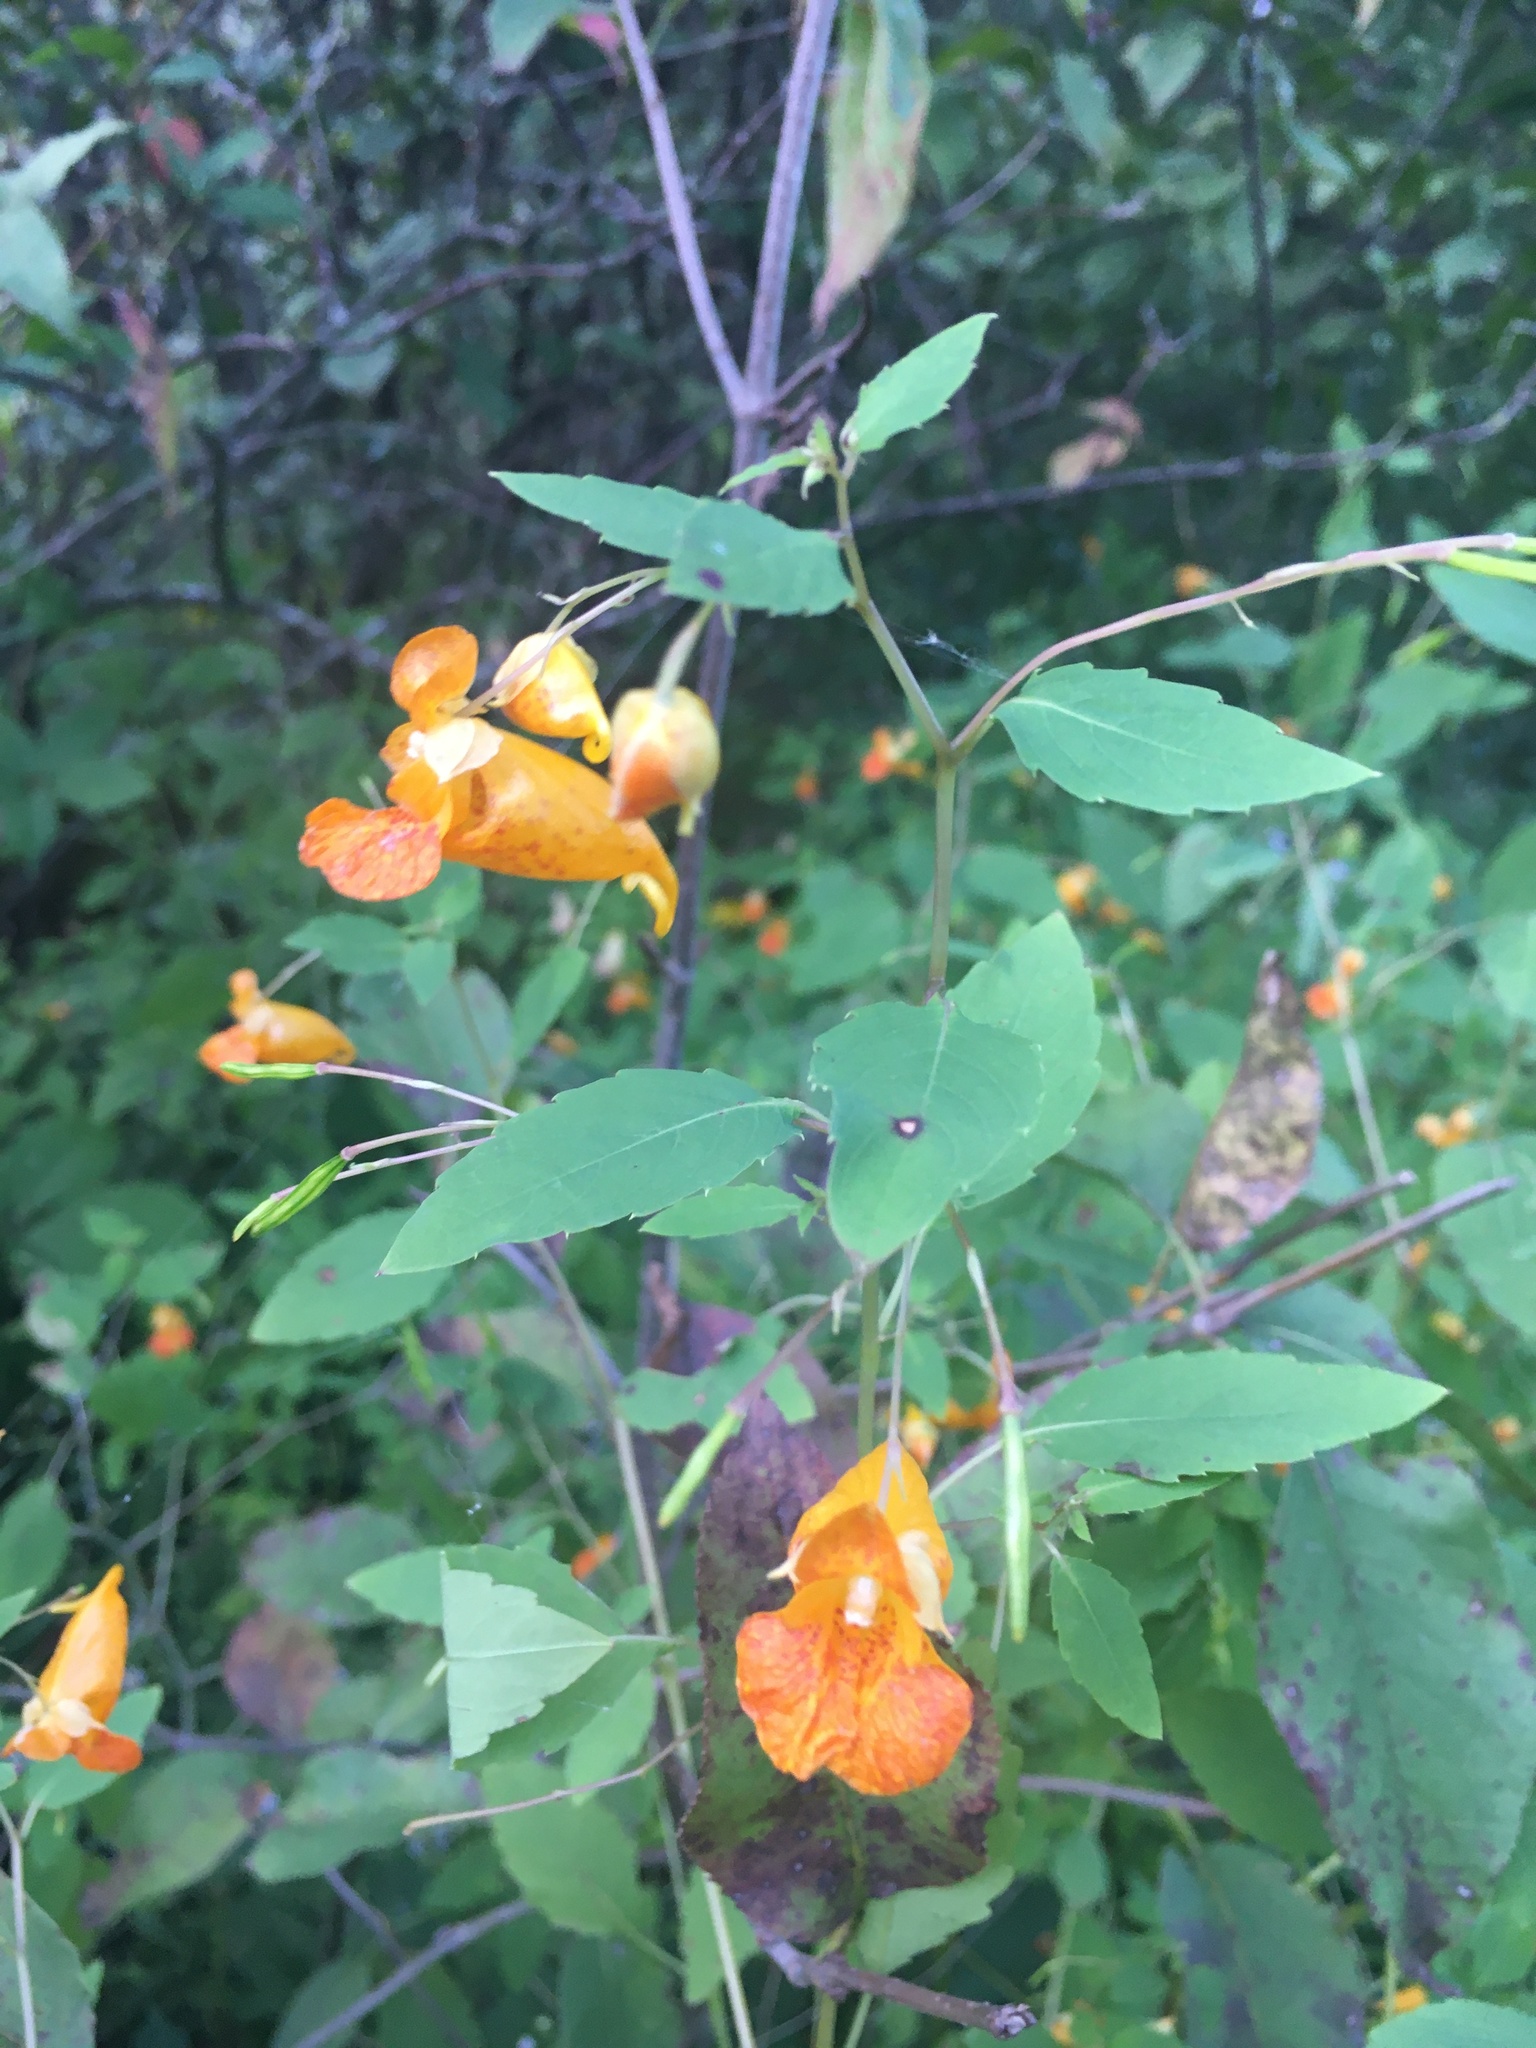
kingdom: Plantae
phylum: Tracheophyta
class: Magnoliopsida
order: Ericales
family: Balsaminaceae
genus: Impatiens
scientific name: Impatiens capensis
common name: Orange balsam
